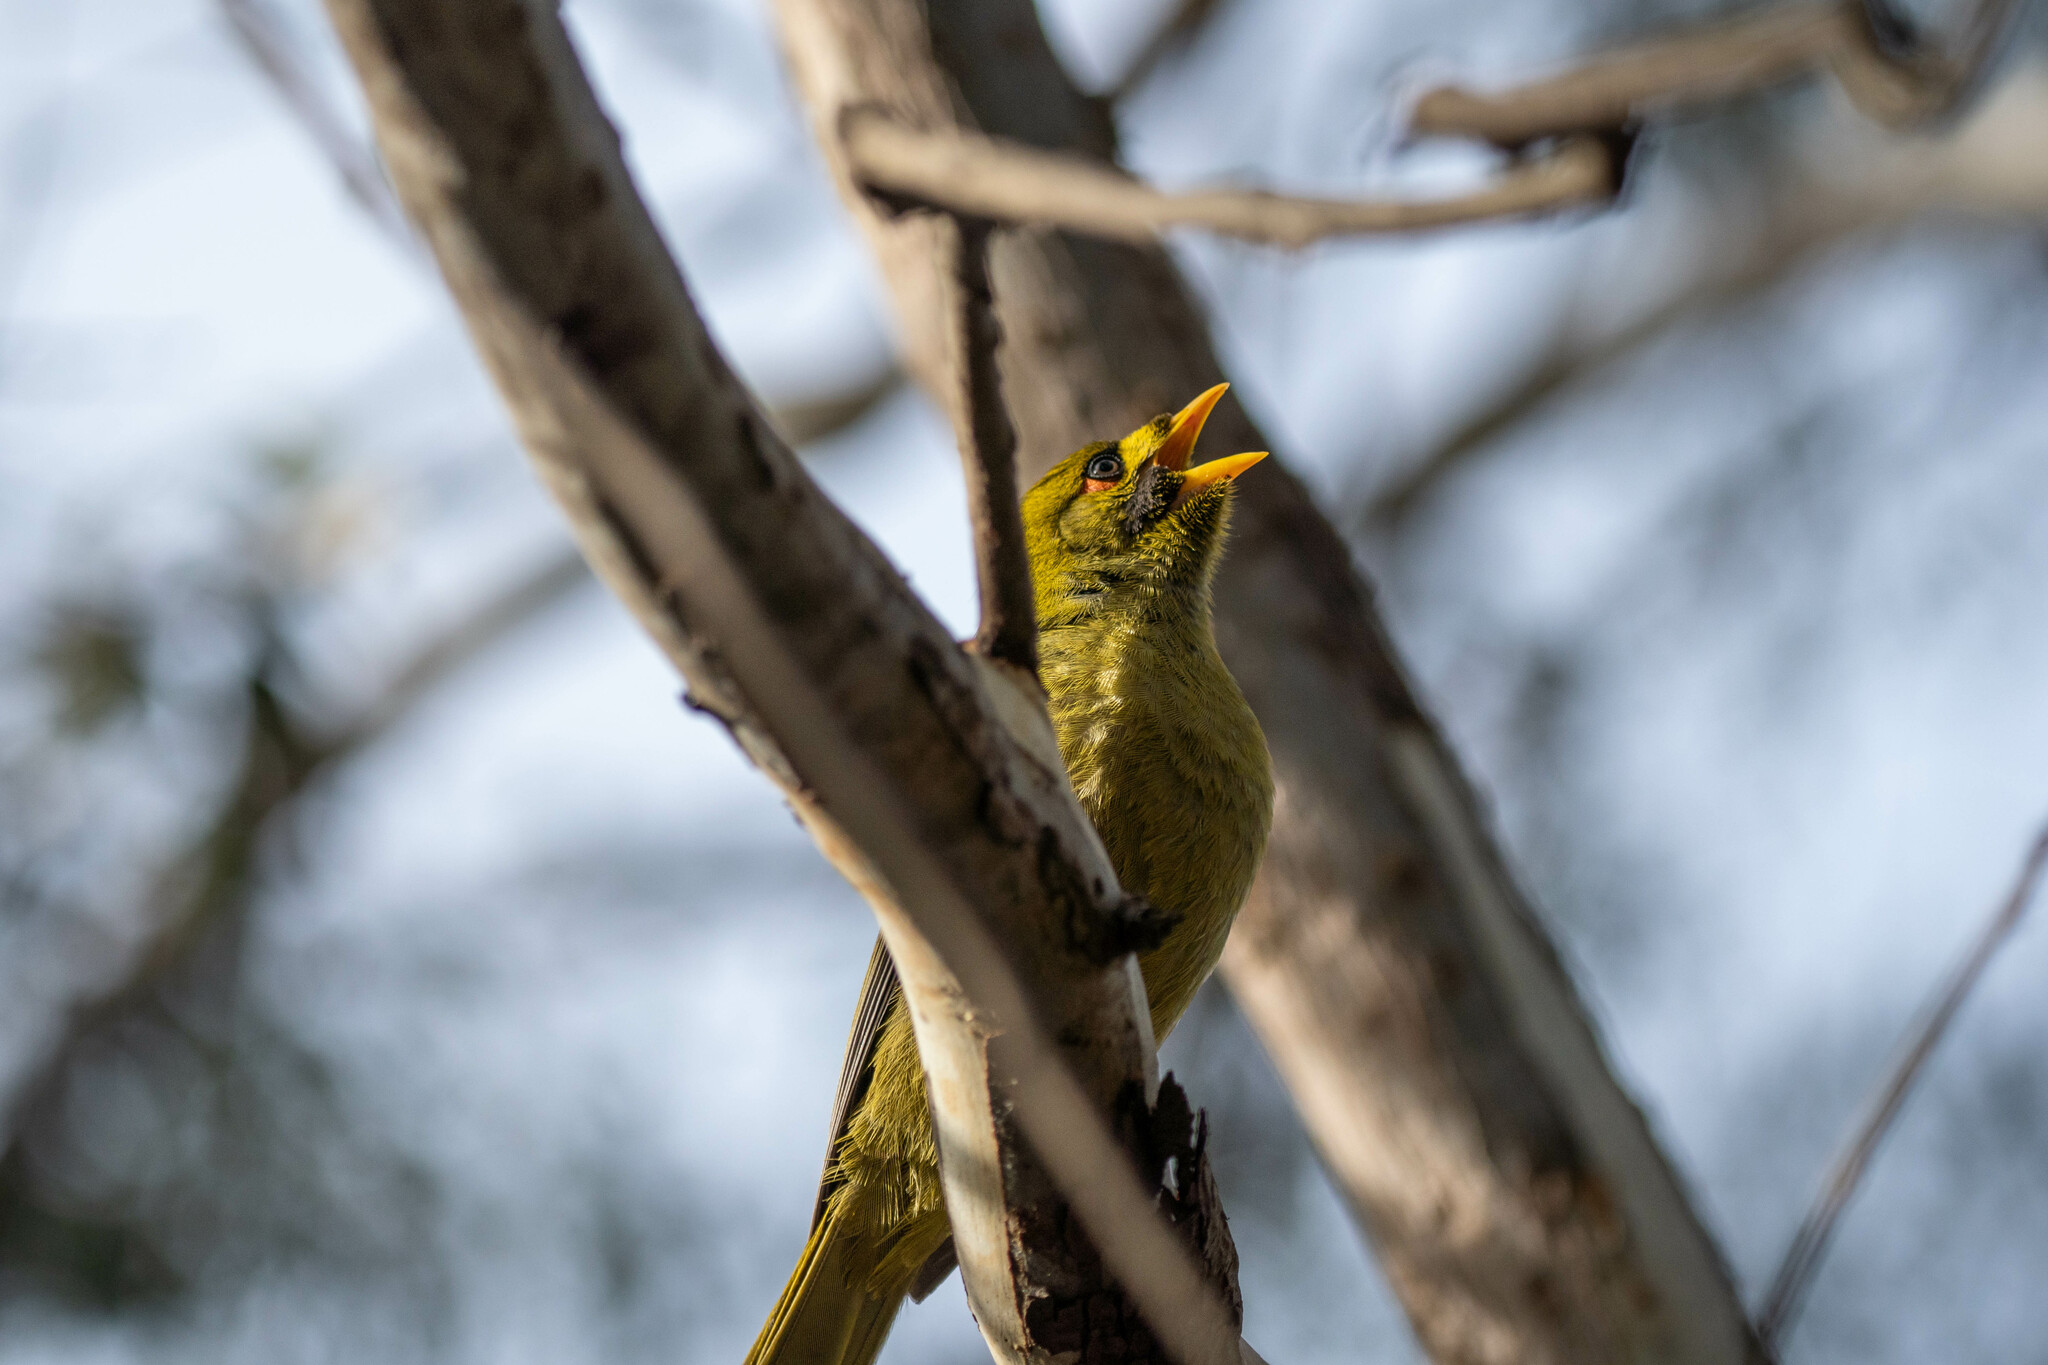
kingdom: Animalia
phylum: Chordata
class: Aves
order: Passeriformes
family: Meliphagidae
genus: Manorina
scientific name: Manorina melanophrys
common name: Bell miner
